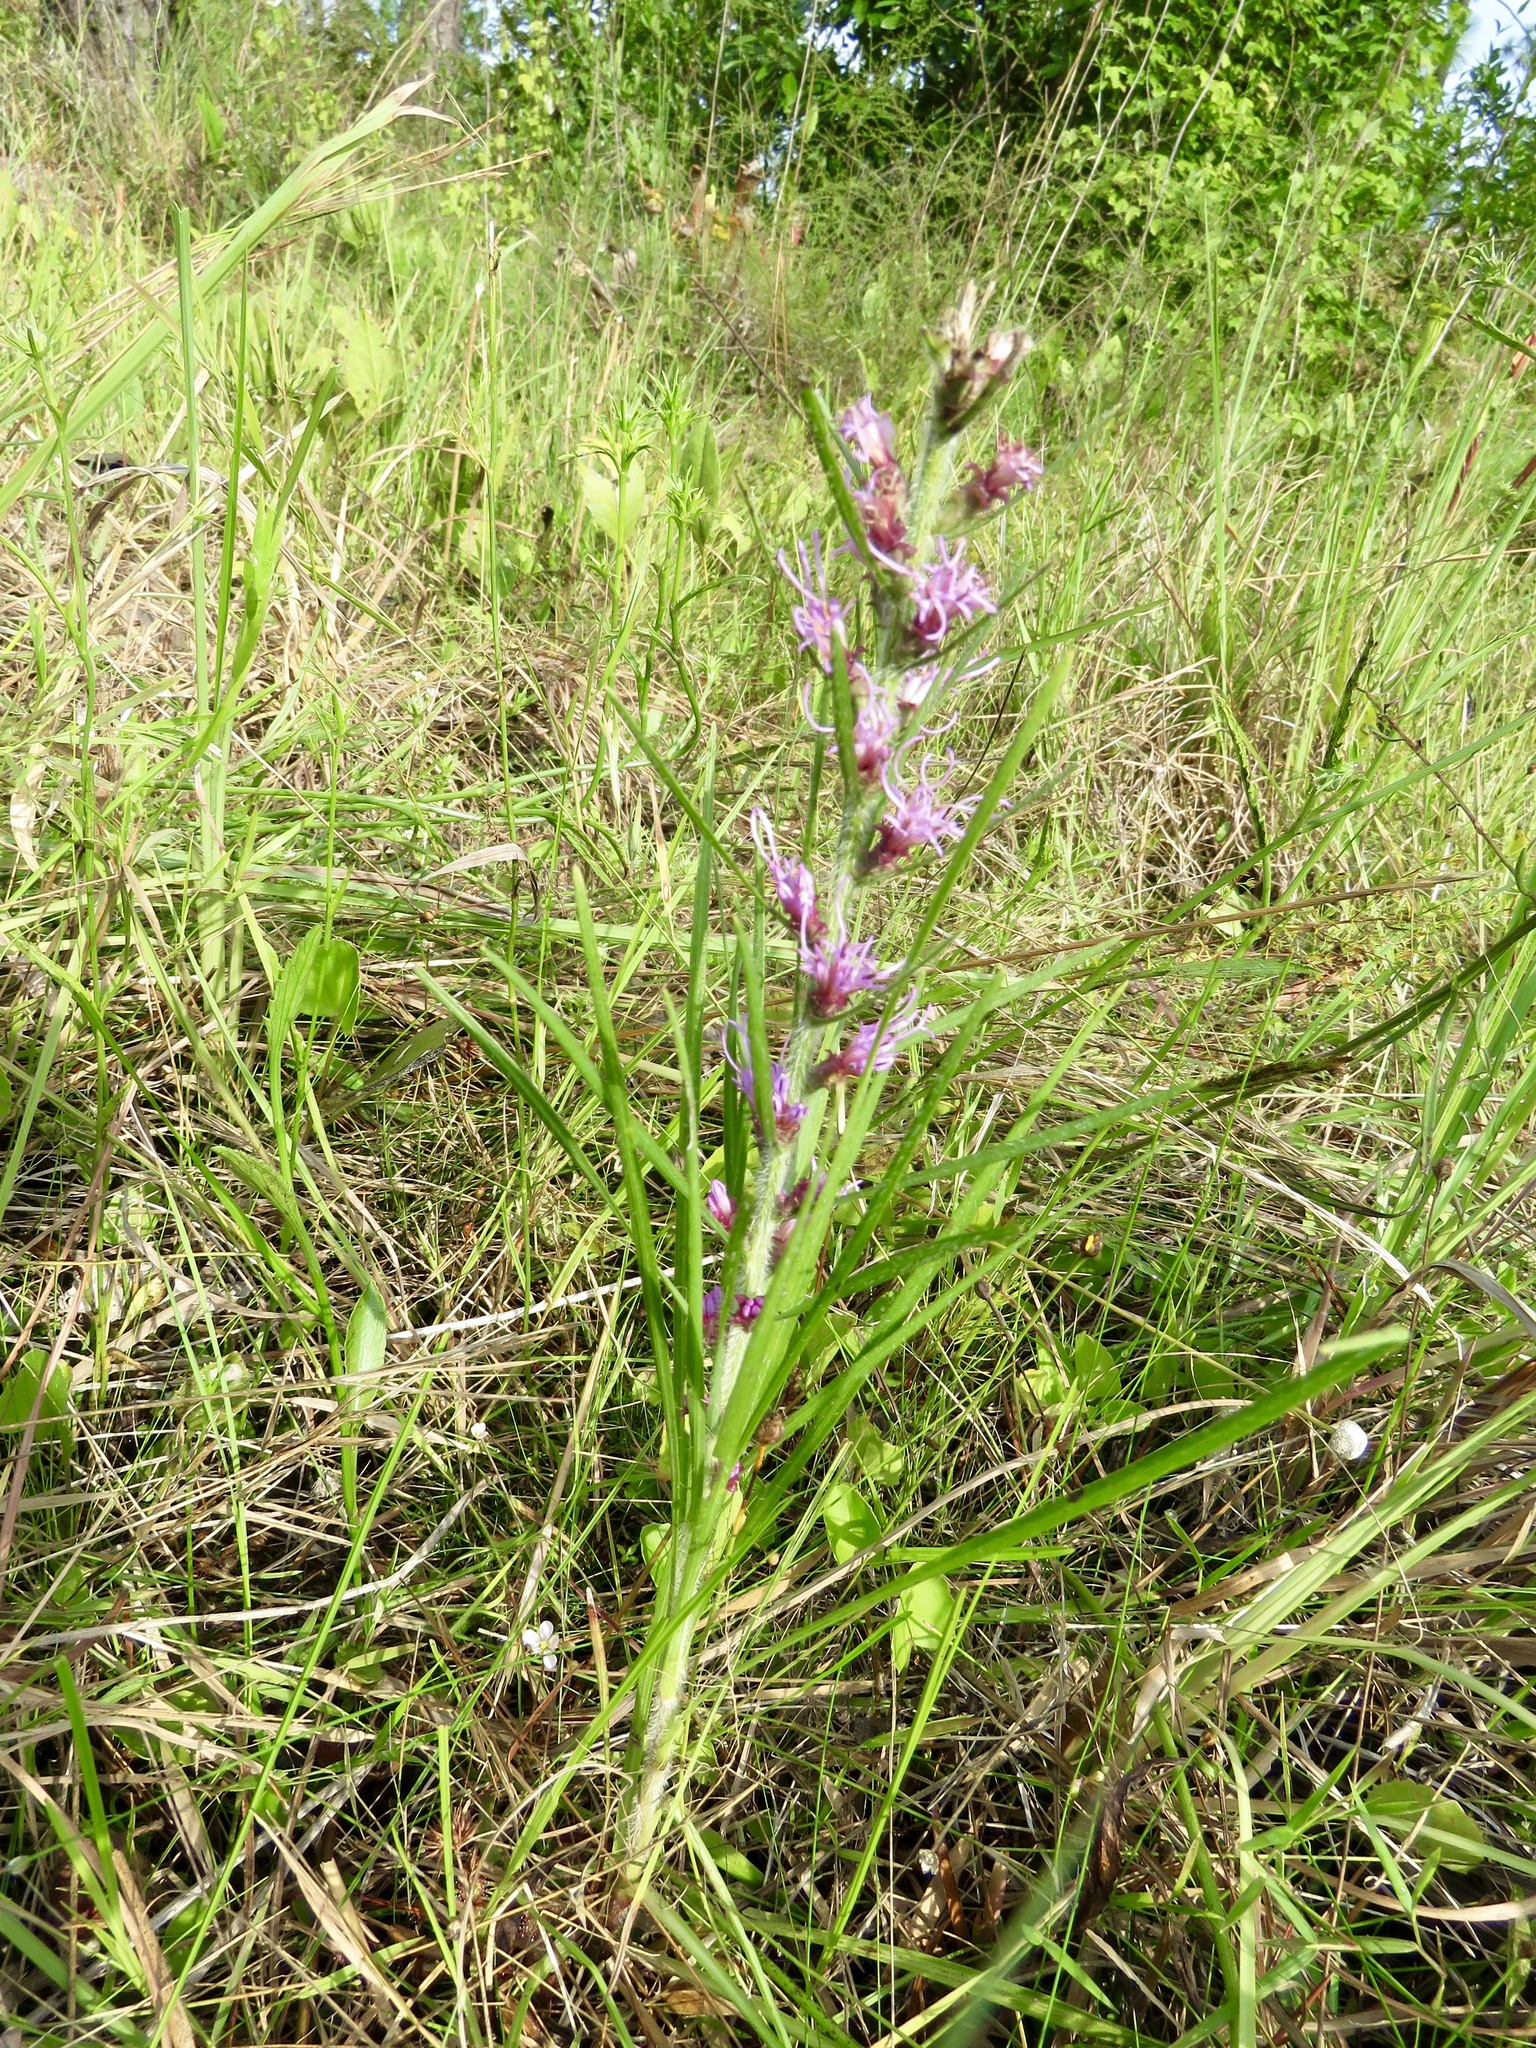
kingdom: Plantae
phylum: Tracheophyta
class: Magnoliopsida
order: Asterales
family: Asteraceae
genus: Liatris
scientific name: Liatris pycnostachya
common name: Cattail gayfeather
